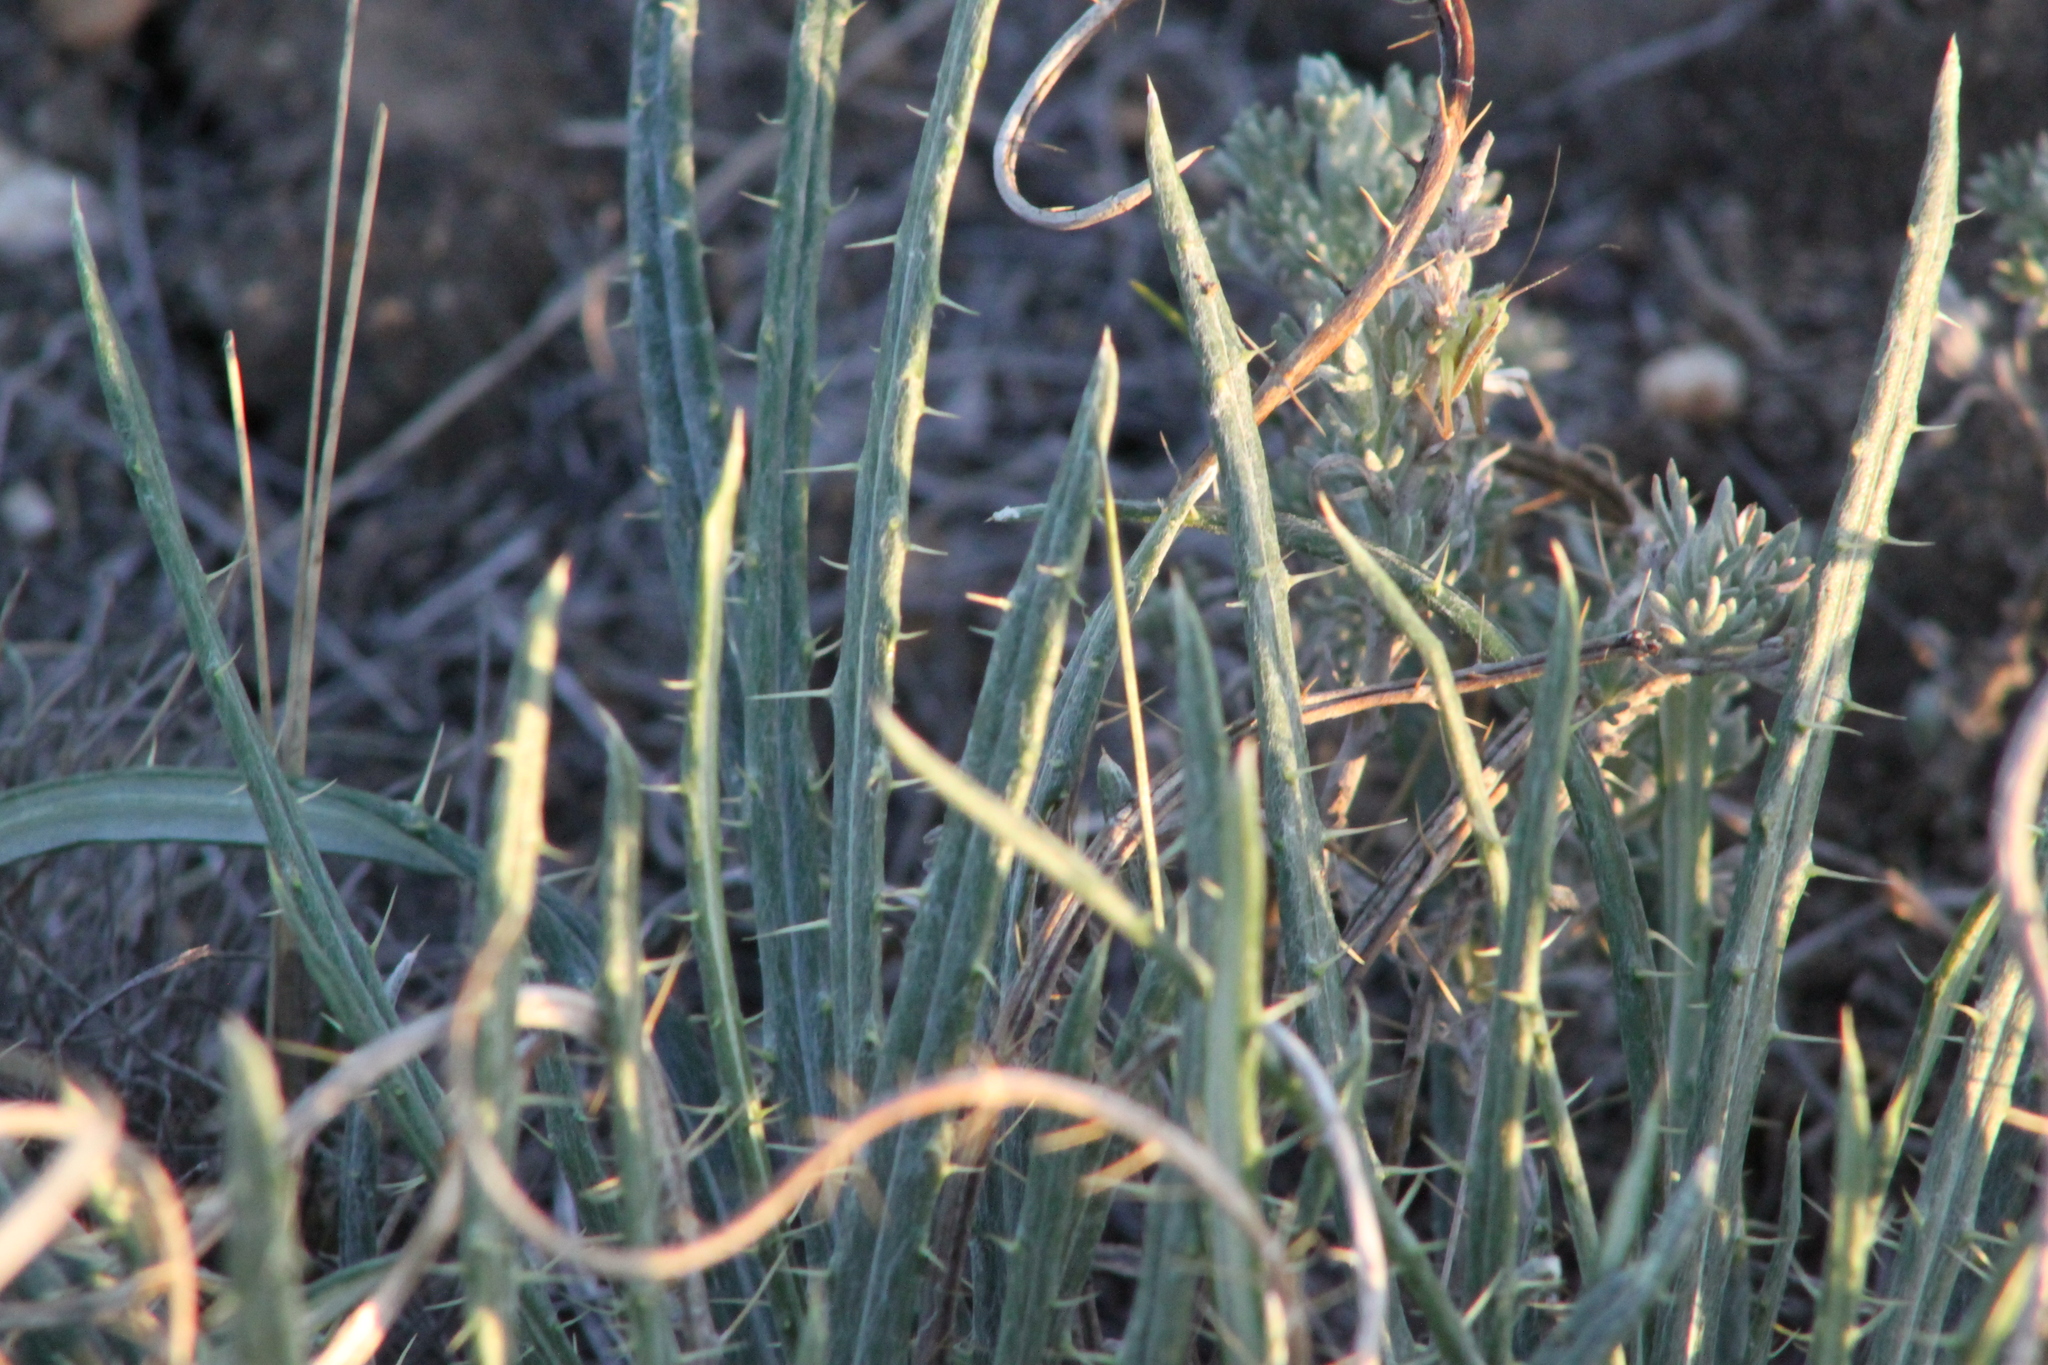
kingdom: Plantae
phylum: Tracheophyta
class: Magnoliopsida
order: Asterales
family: Asteraceae
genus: Ancathia
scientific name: Ancathia igniaria
